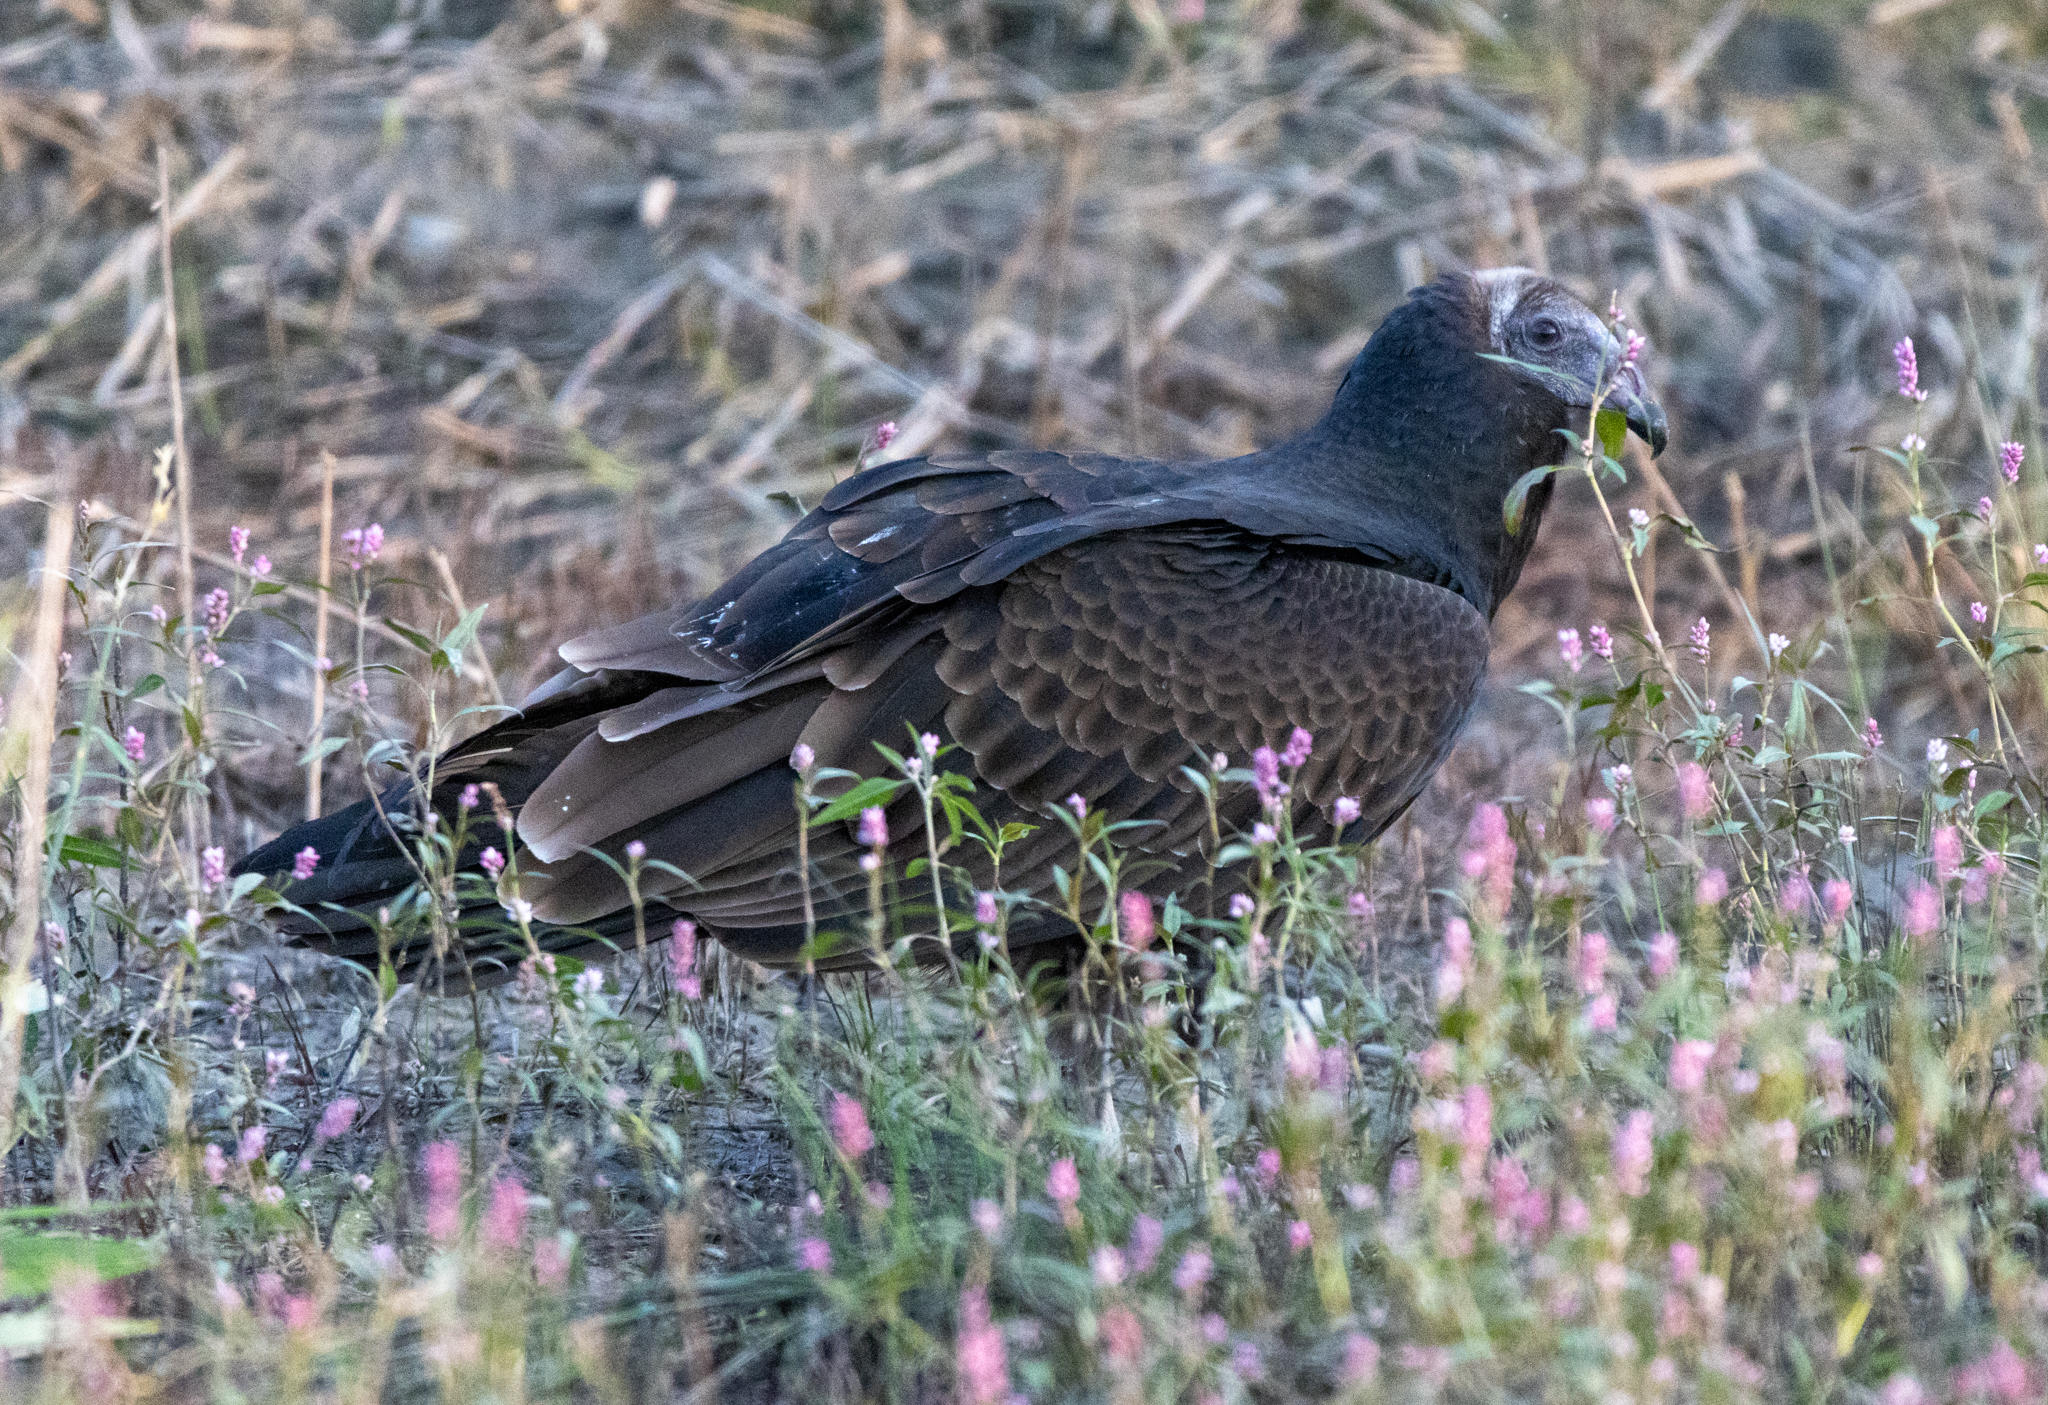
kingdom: Animalia
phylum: Chordata
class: Aves
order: Accipitriformes
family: Cathartidae
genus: Cathartes
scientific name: Cathartes aura
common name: Turkey vulture
